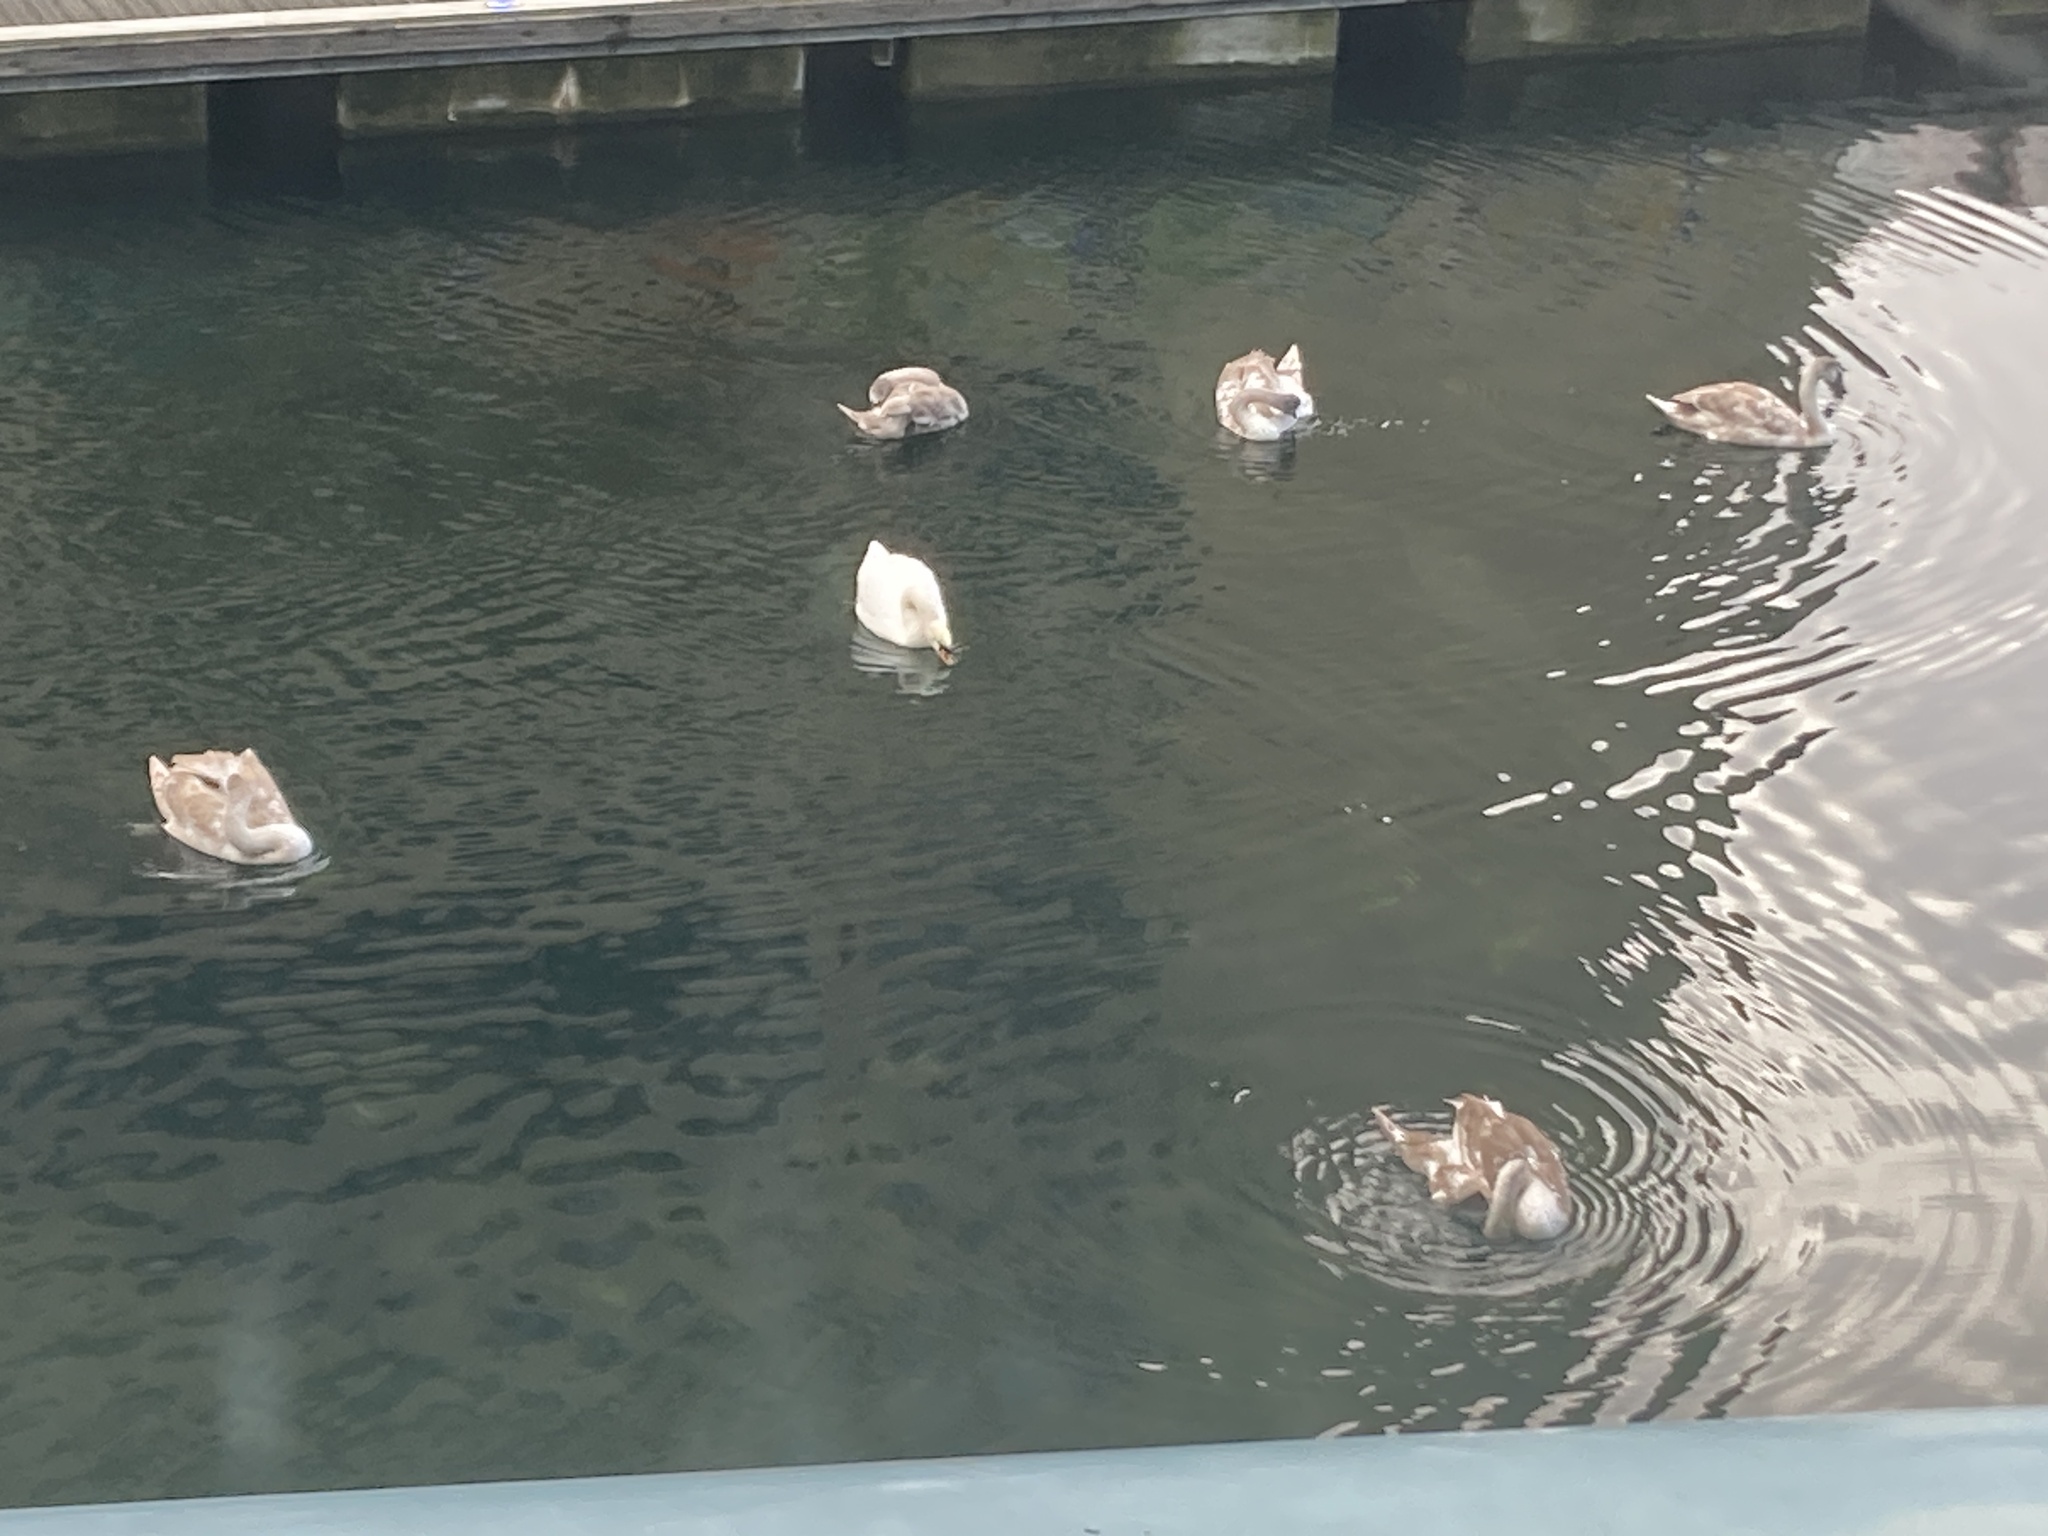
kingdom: Animalia
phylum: Chordata
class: Aves
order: Anseriformes
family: Anatidae
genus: Cygnus
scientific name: Cygnus olor
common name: Mute swan
